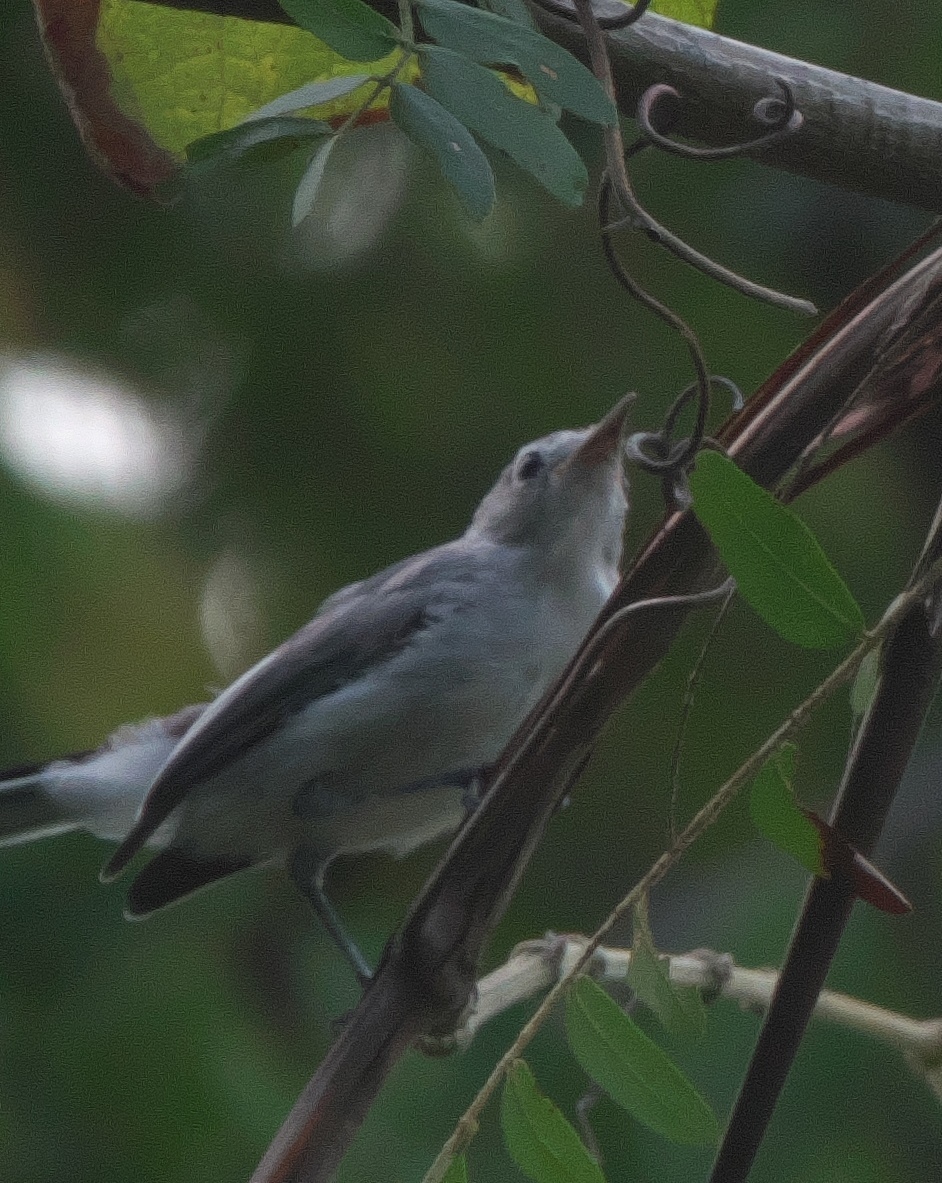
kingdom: Animalia
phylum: Chordata
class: Aves
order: Passeriformes
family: Polioptilidae
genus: Polioptila
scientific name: Polioptila caerulea
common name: Blue-gray gnatcatcher
